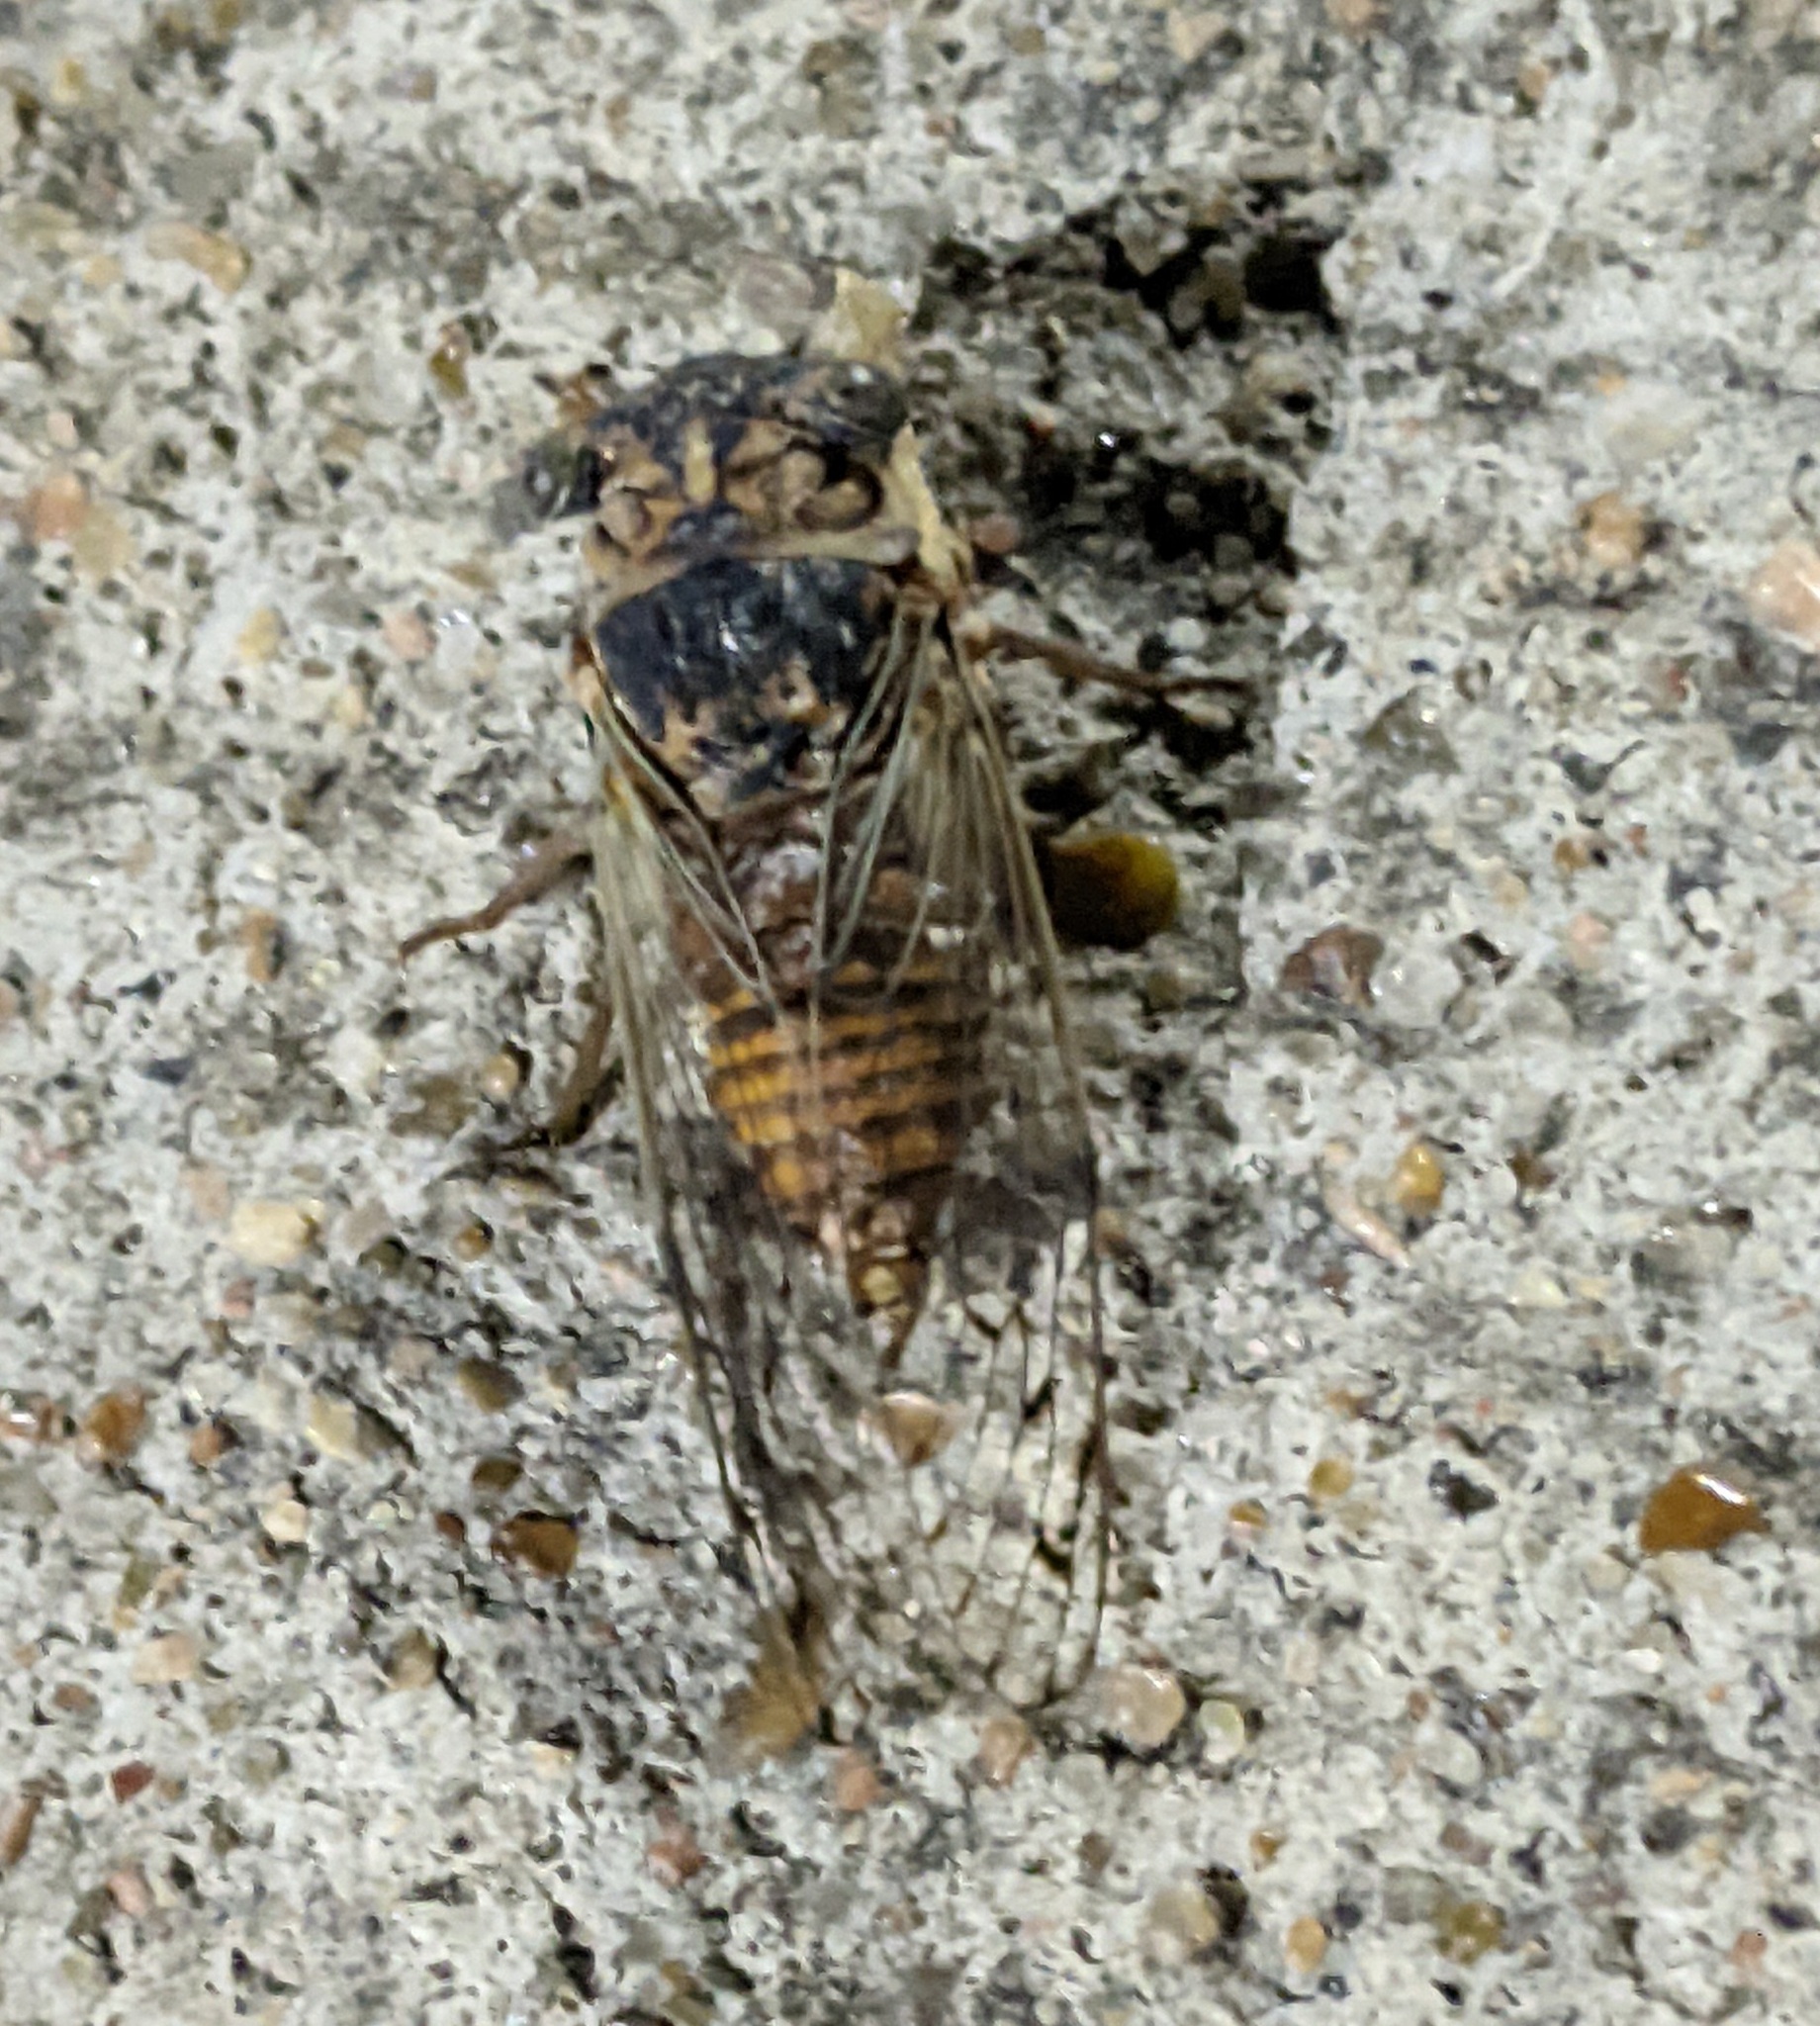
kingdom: Animalia
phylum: Arthropoda
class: Insecta
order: Hemiptera
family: Cicadidae
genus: Pacarina
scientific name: Pacarina puella
